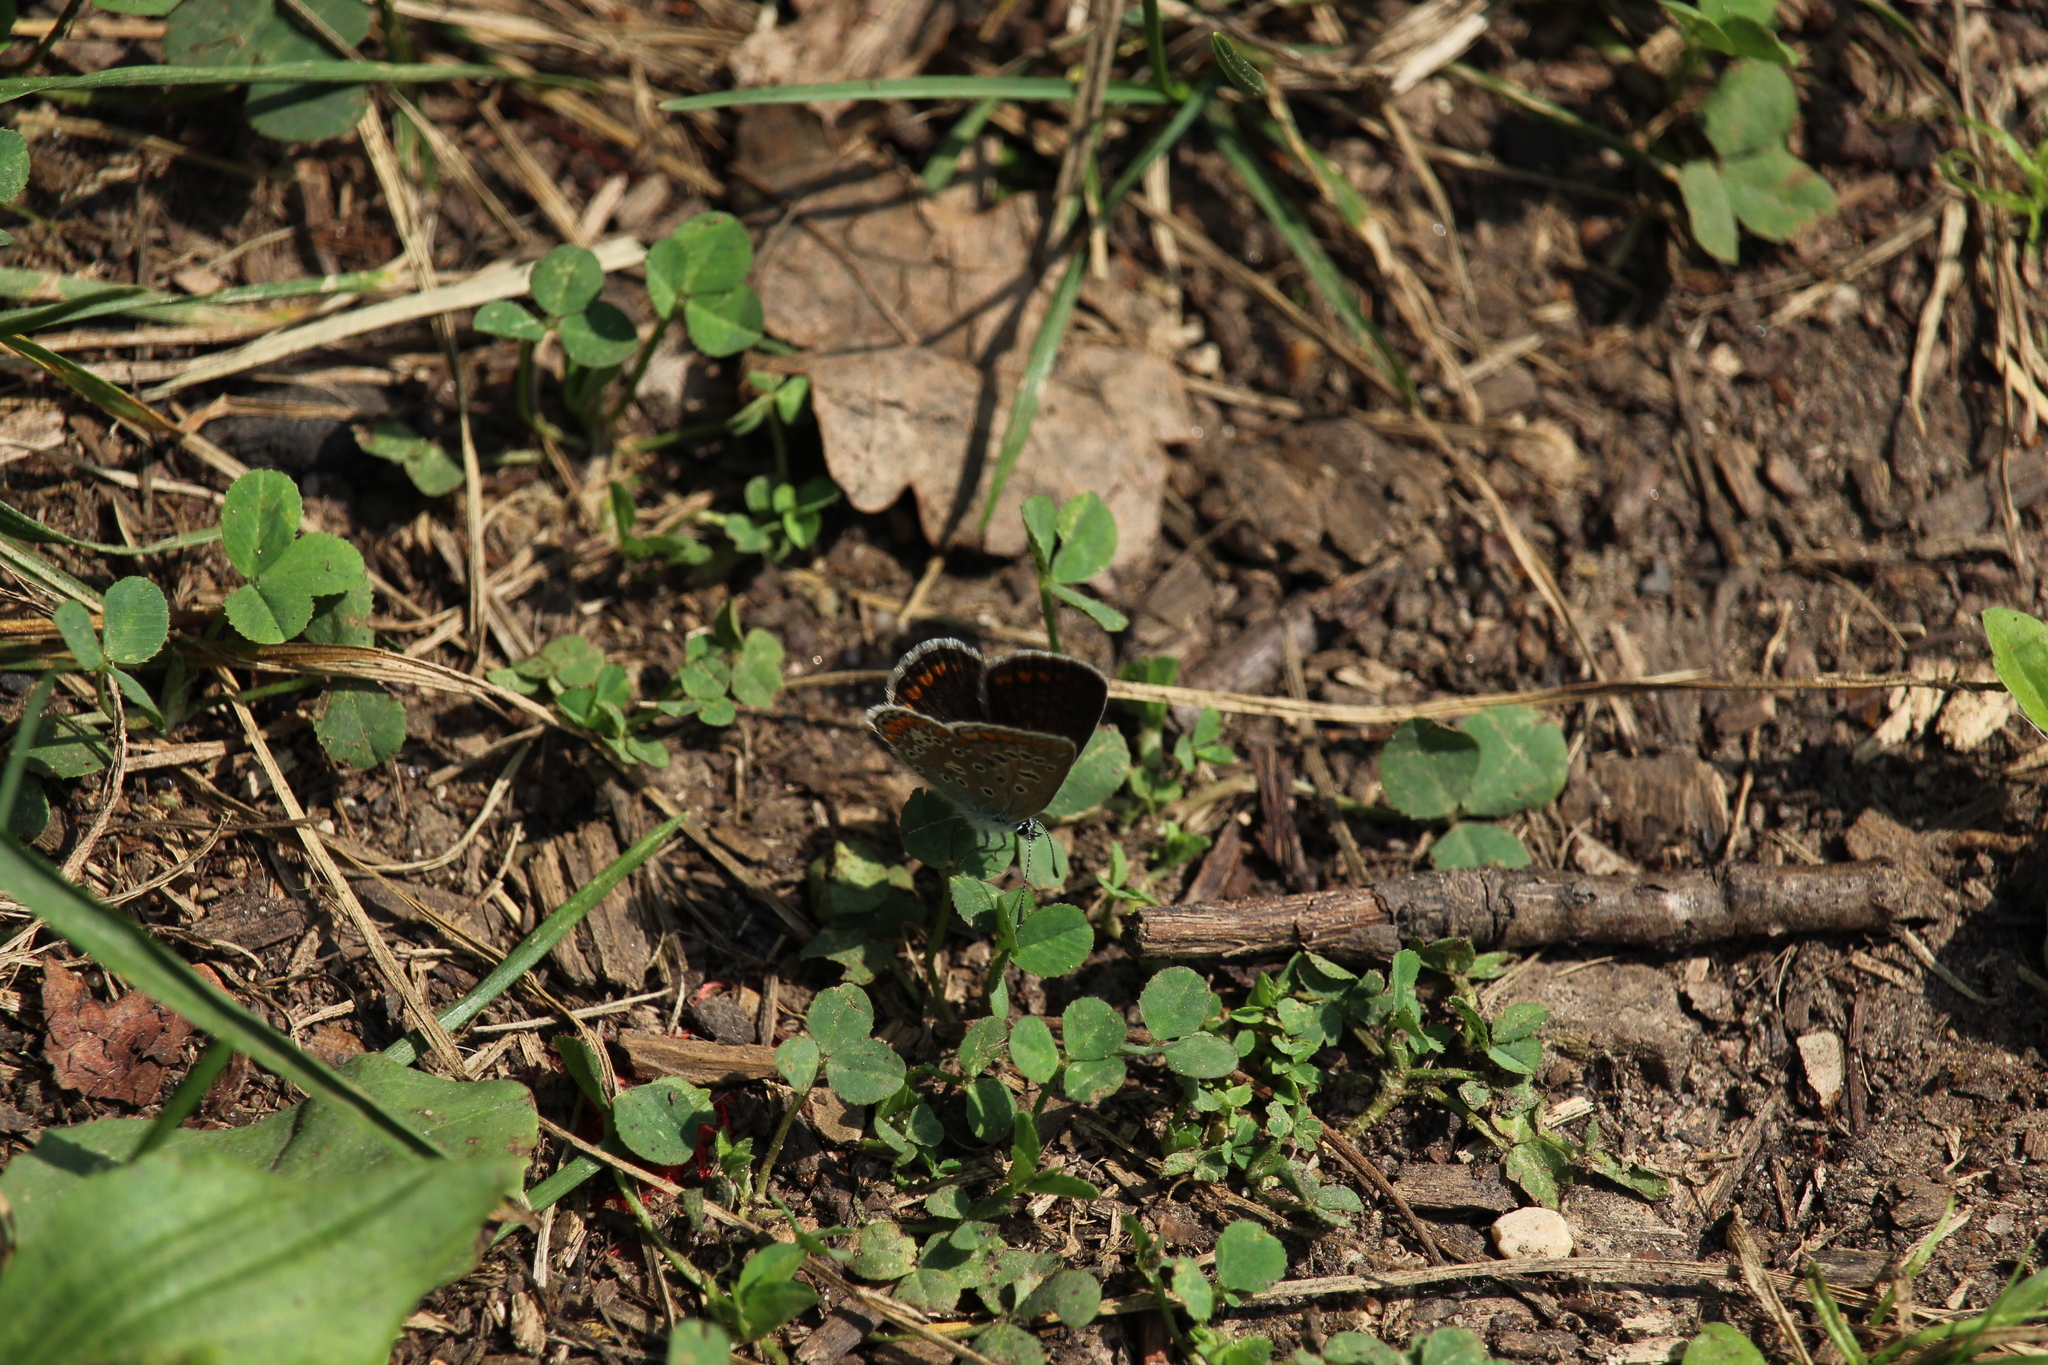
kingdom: Animalia
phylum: Arthropoda
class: Insecta
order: Lepidoptera
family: Lycaenidae
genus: Polyommatus
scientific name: Polyommatus icarus
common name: Common blue
